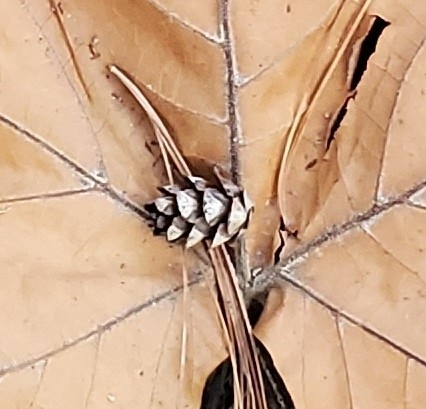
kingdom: Plantae
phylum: Tracheophyta
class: Pinopsida
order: Pinales
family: Pinaceae
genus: Tsuga
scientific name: Tsuga canadensis
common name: Eastern hemlock
